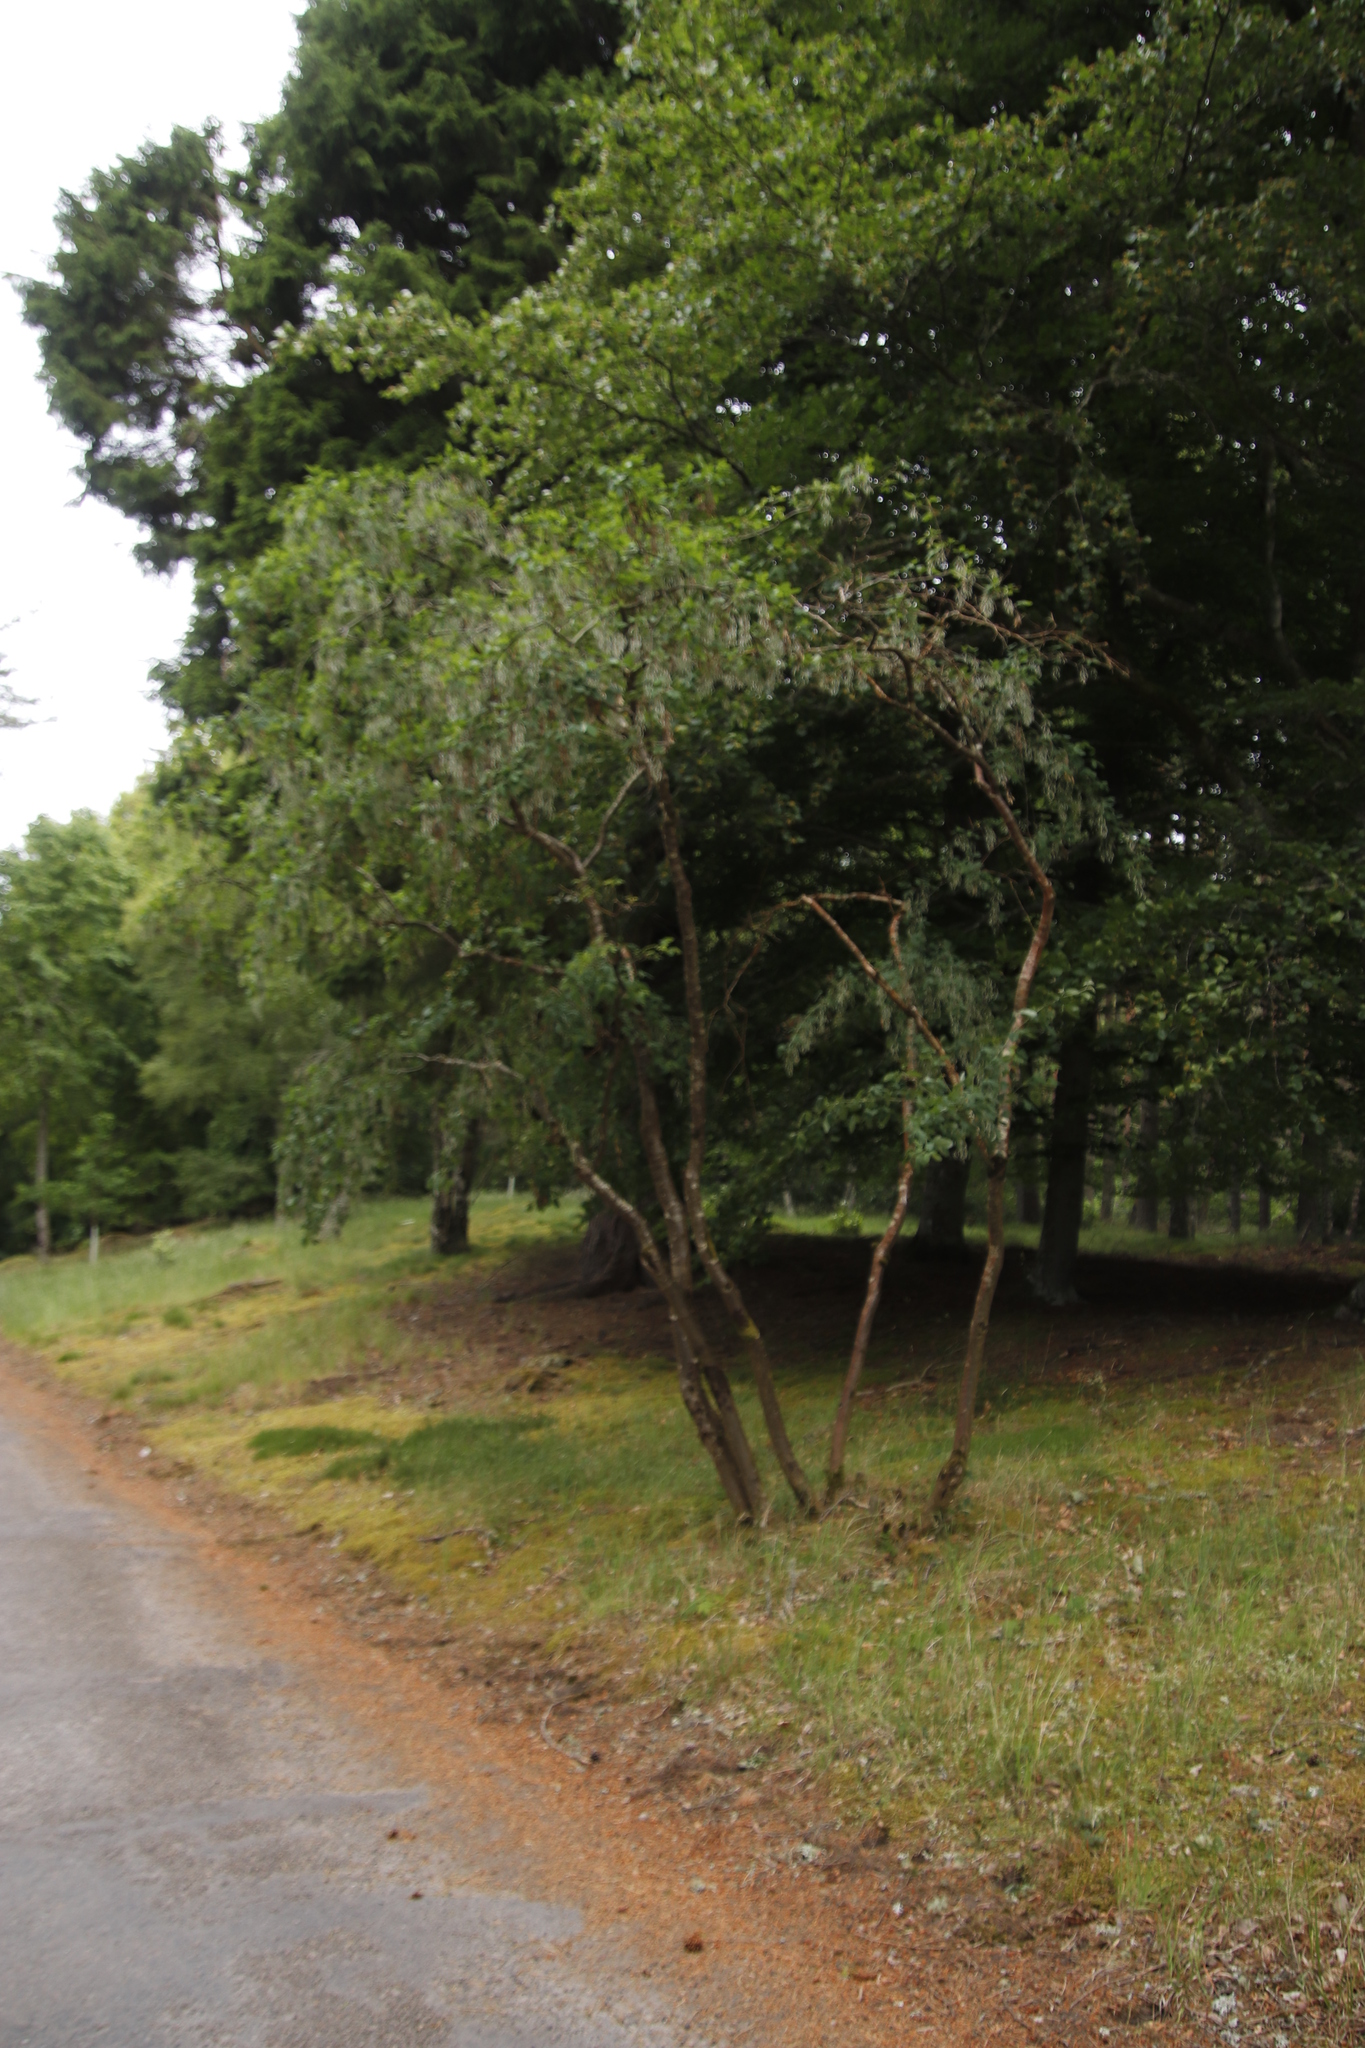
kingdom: Plantae
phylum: Tracheophyta
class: Magnoliopsida
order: Fabales
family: Fabaceae
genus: Laburnum
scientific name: Laburnum anagyroides
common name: Laburnum
